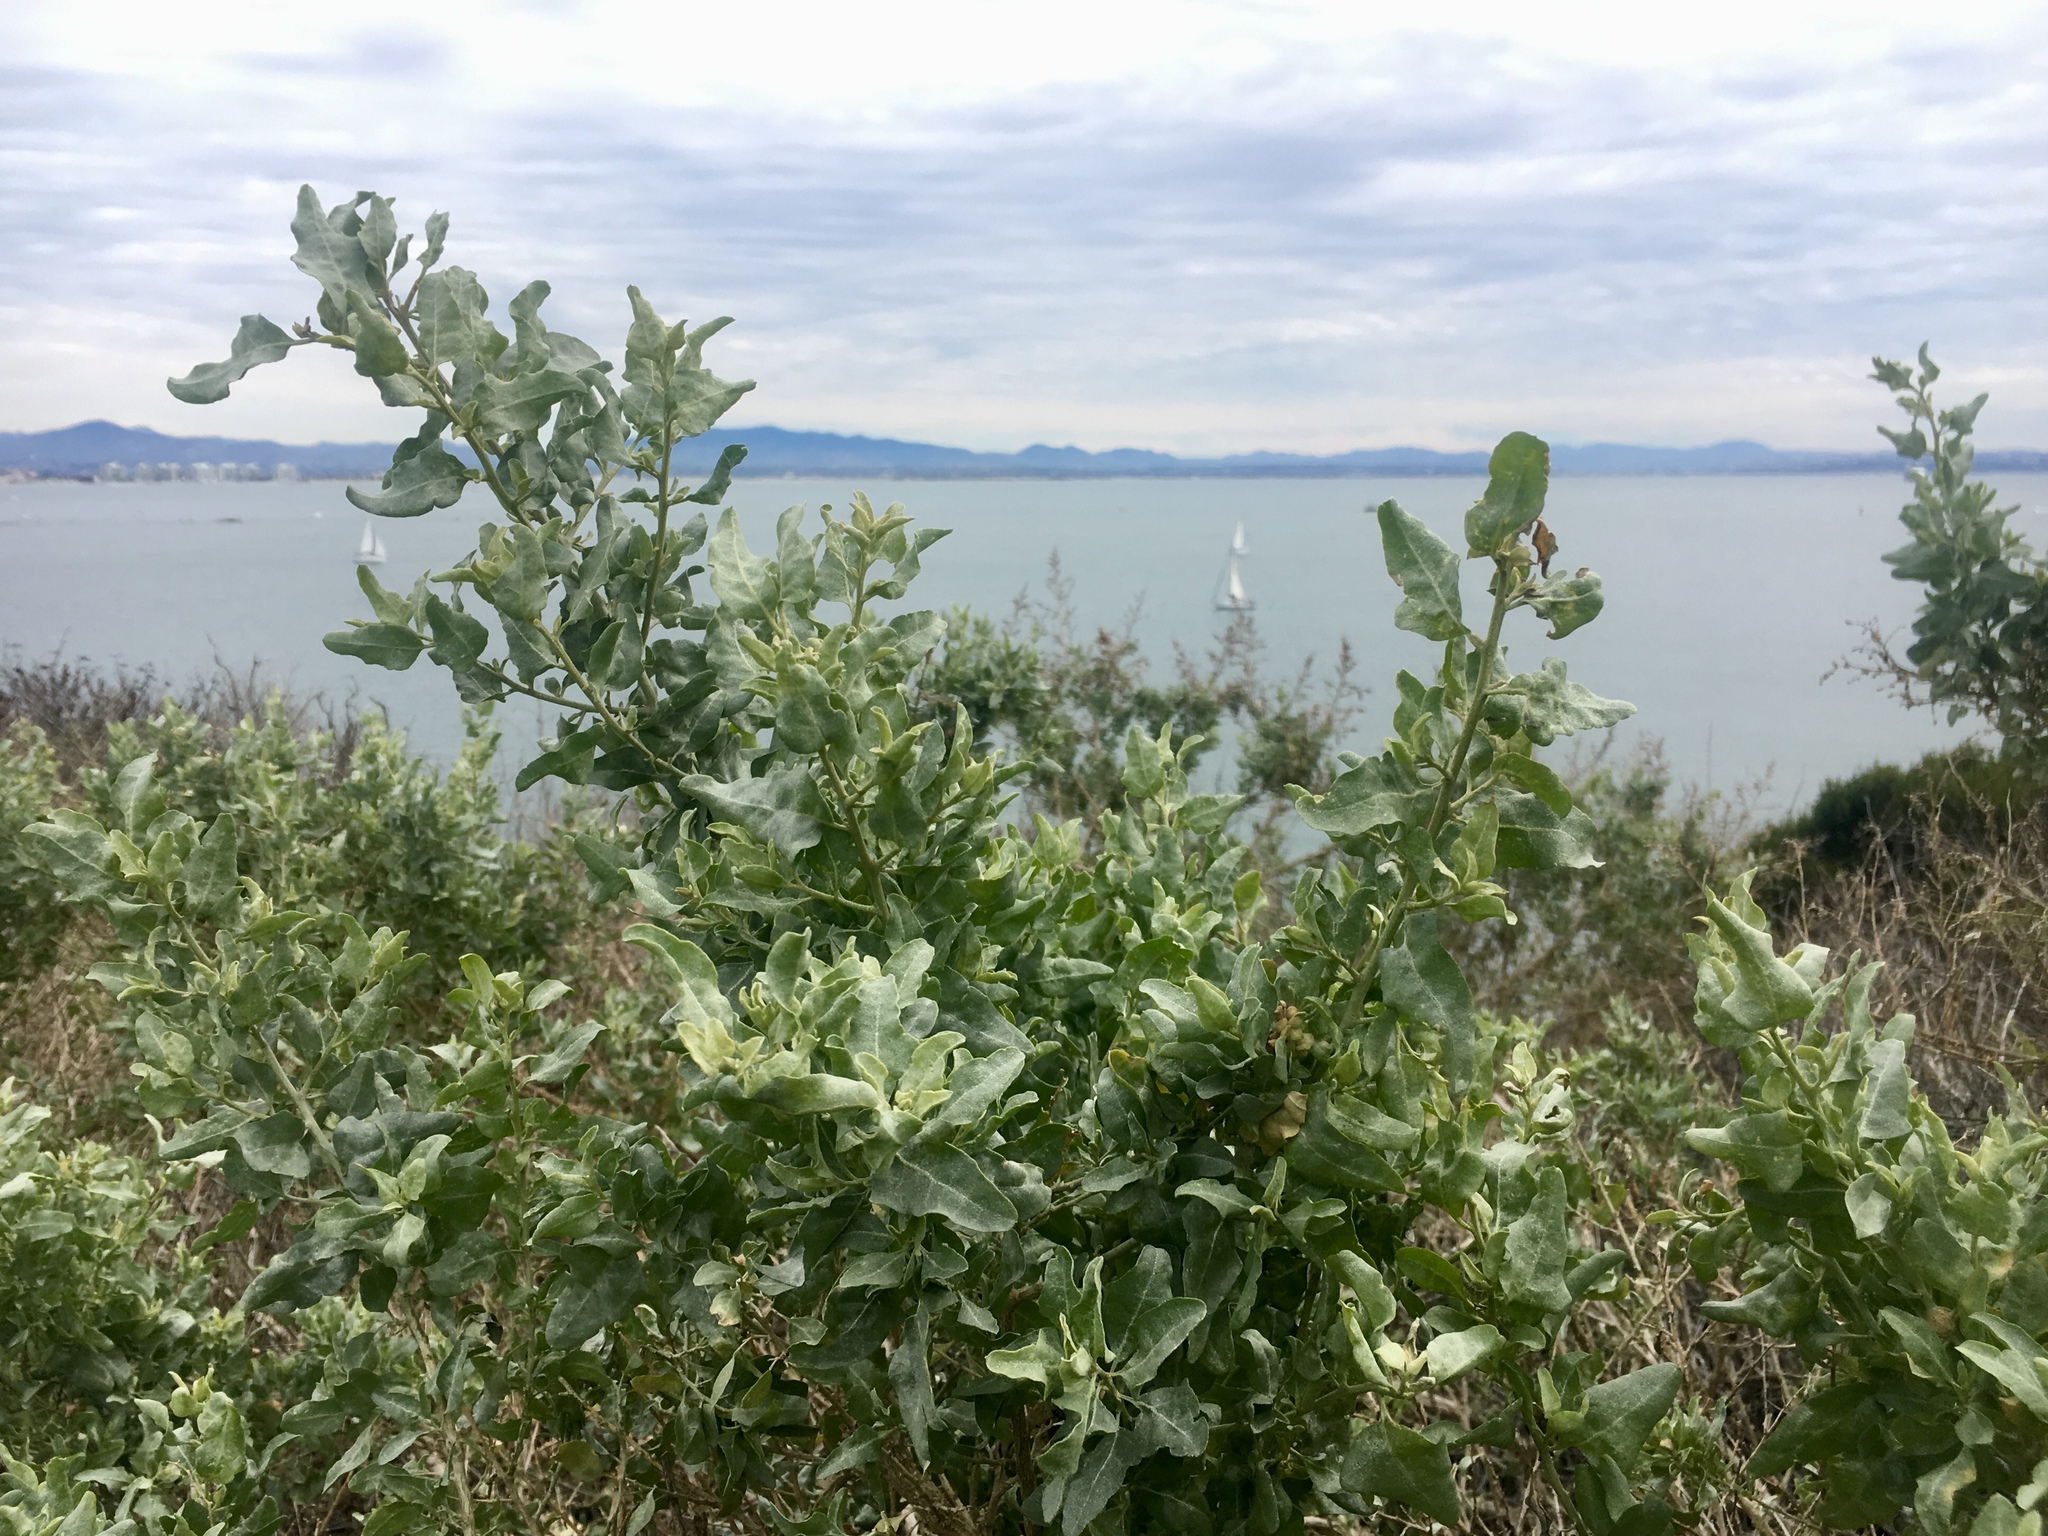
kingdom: Plantae
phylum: Tracheophyta
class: Magnoliopsida
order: Caryophyllales
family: Amaranthaceae
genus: Atriplex
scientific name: Atriplex lentiformis
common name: Big saltbush
